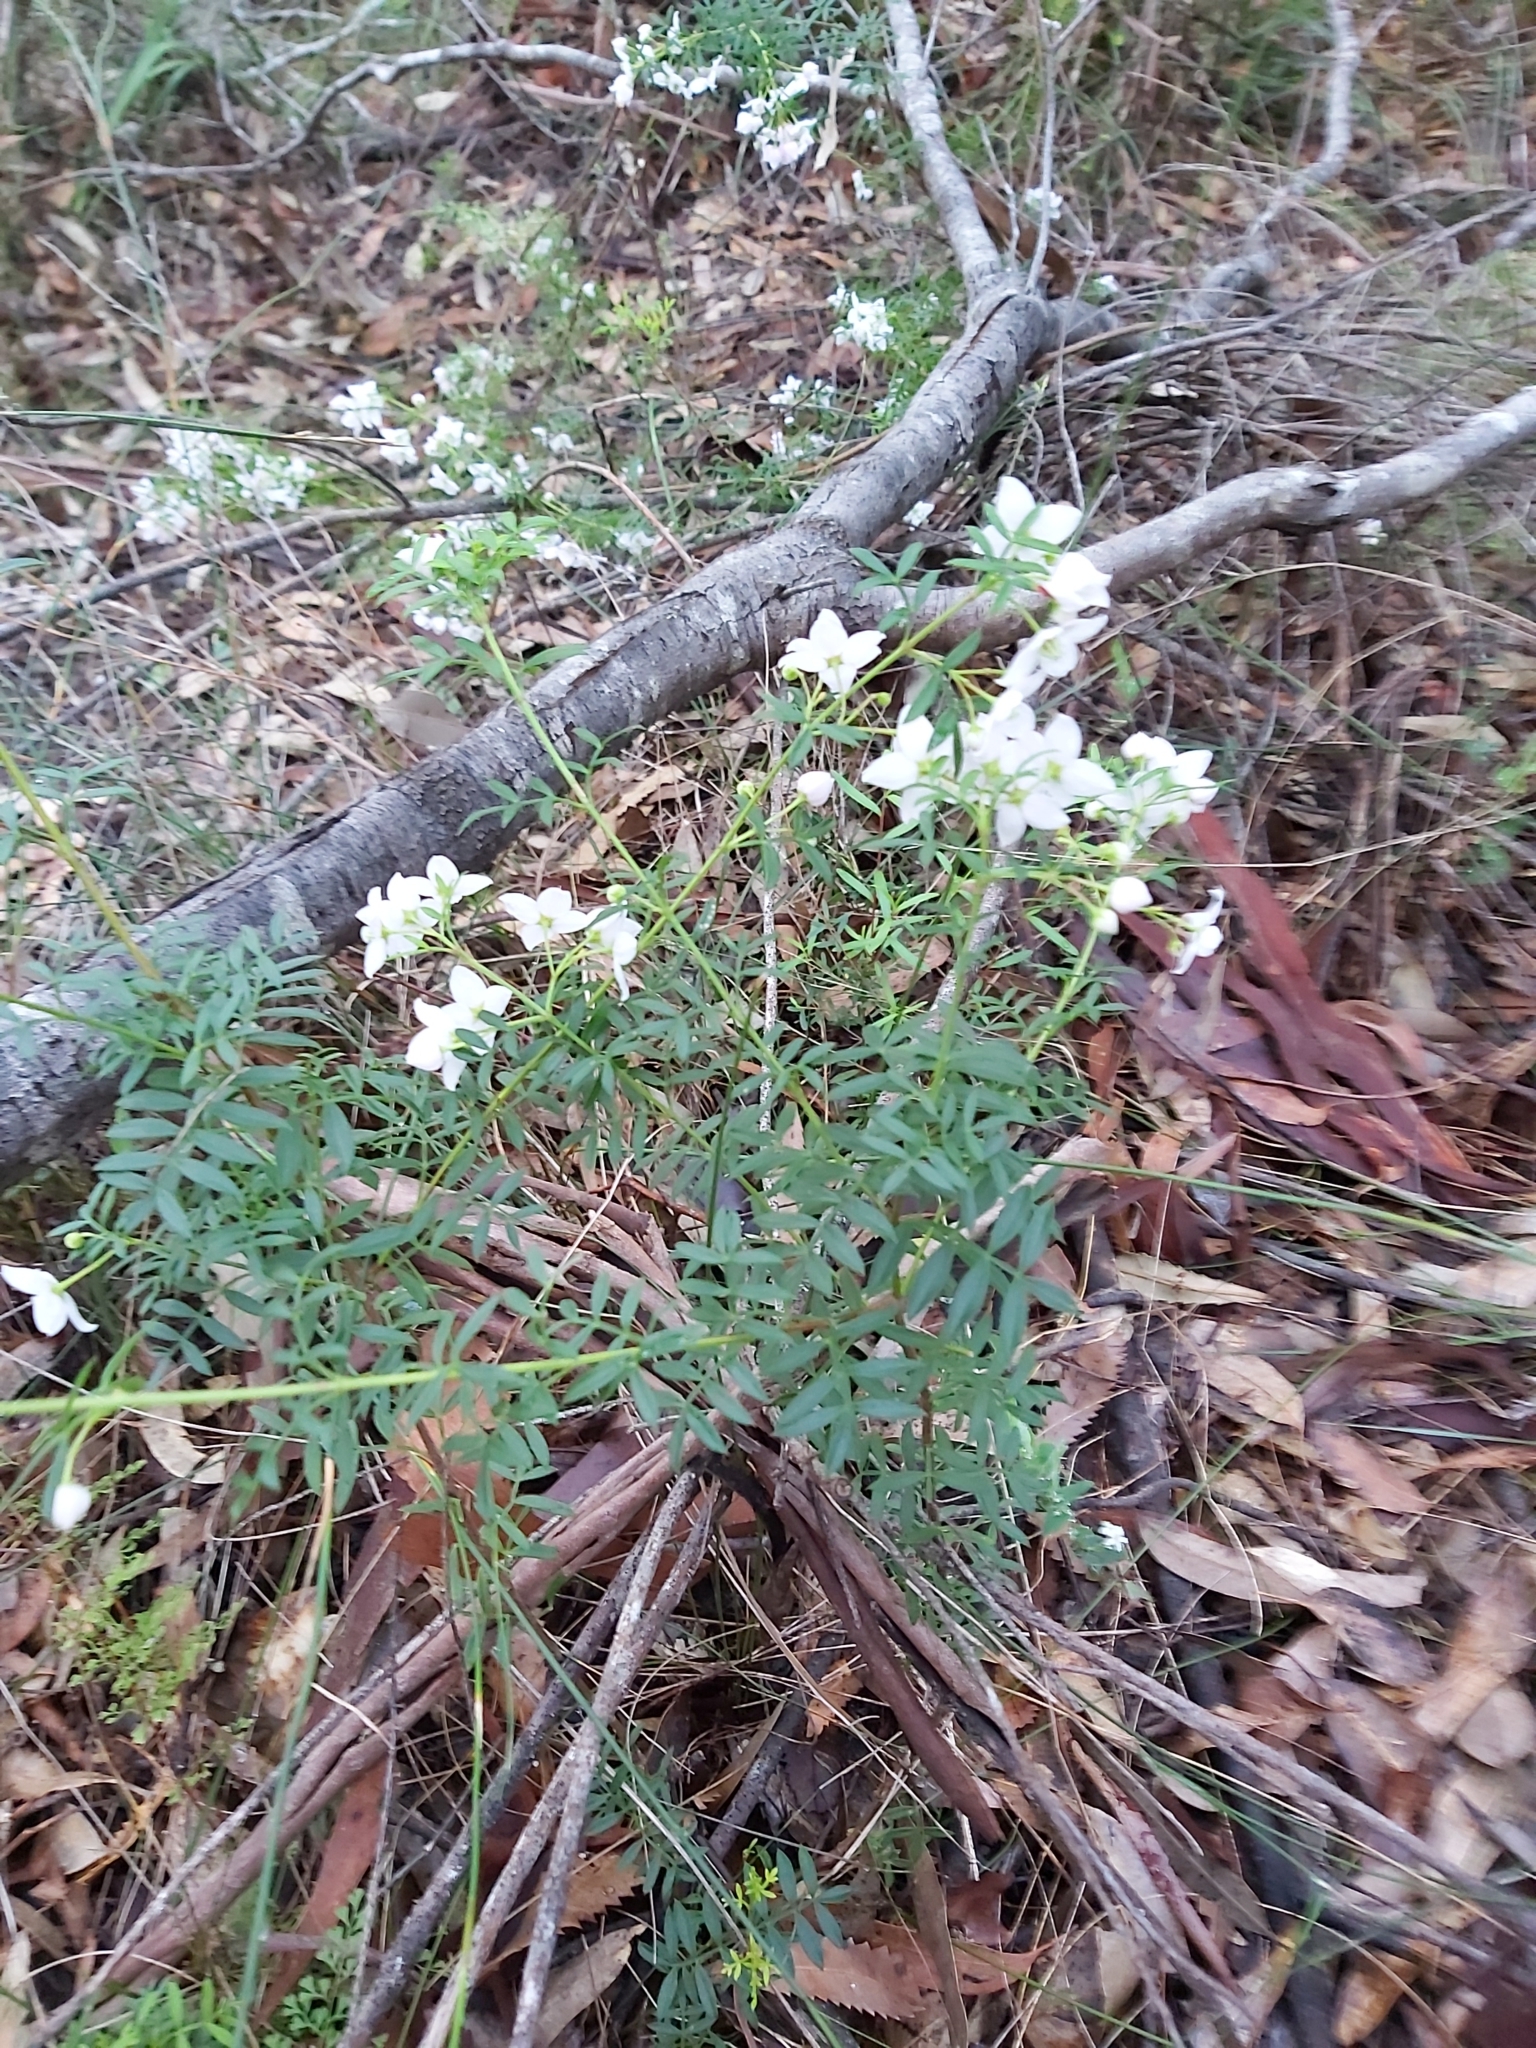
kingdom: Plantae
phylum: Tracheophyta
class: Magnoliopsida
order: Sapindales
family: Rutaceae
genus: Boronia
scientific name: Boronia floribunda
